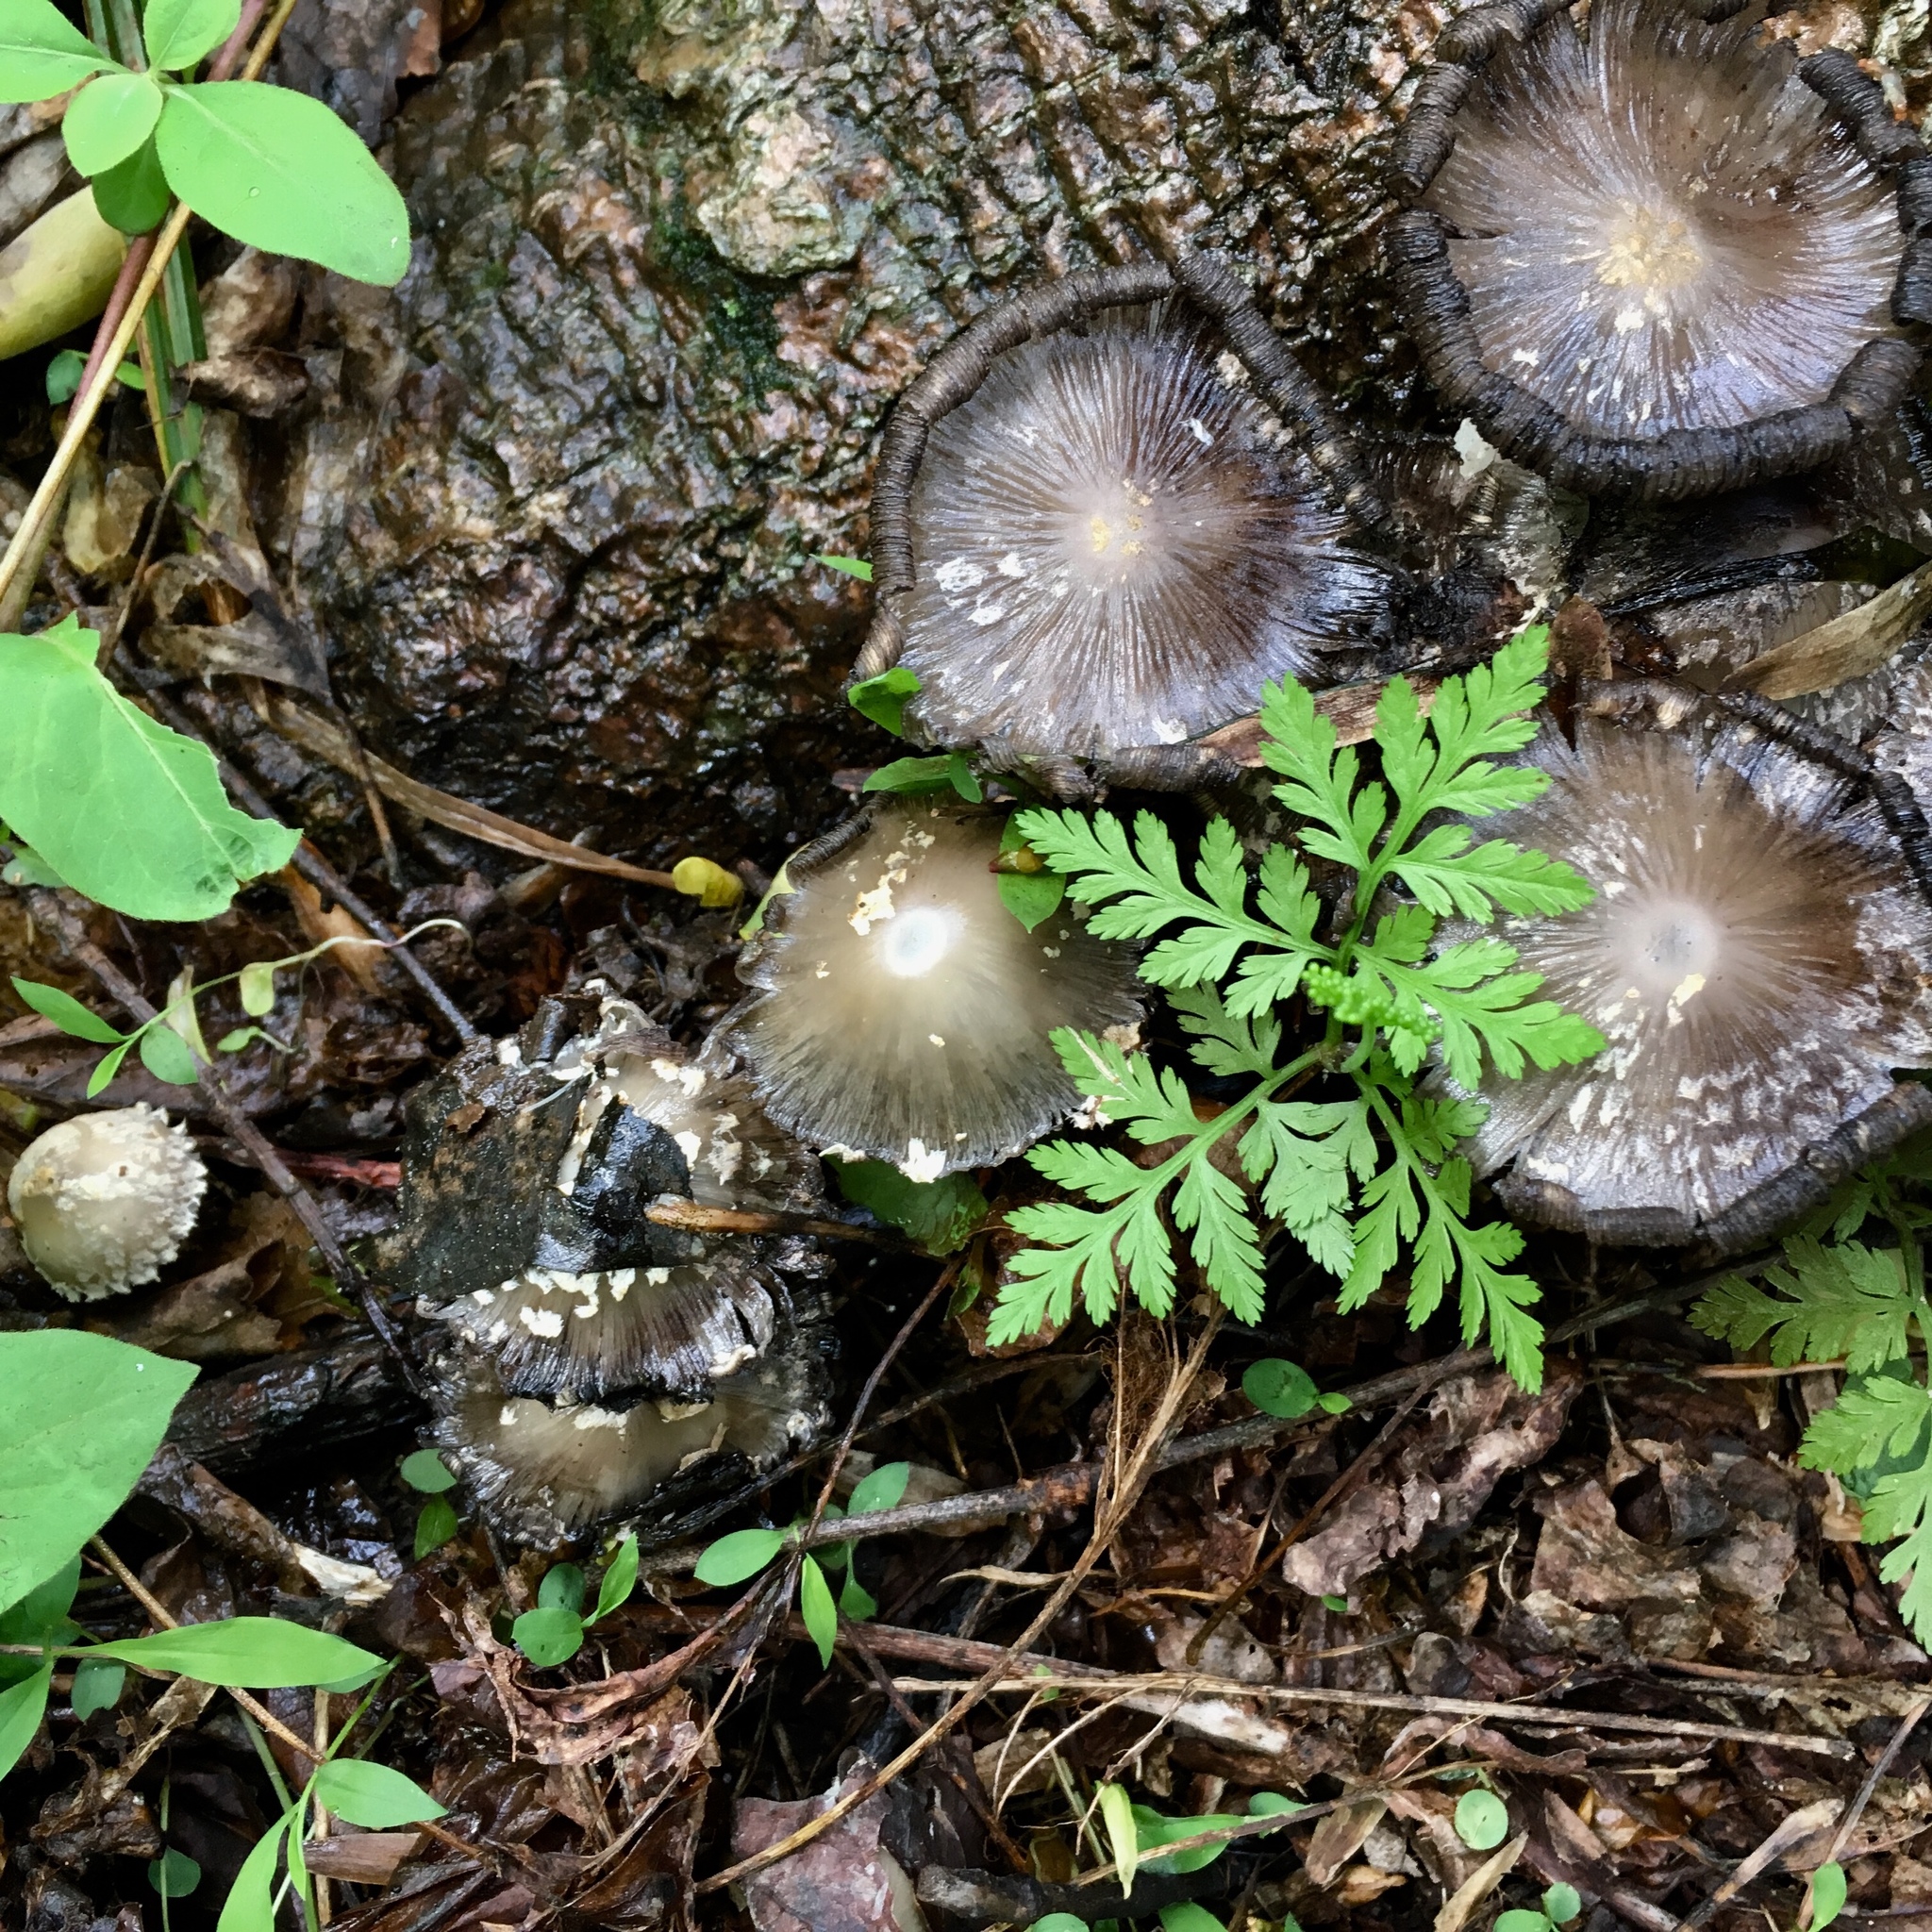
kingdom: Fungi
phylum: Basidiomycota
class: Agaricomycetes
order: Agaricales
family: Psathyrellaceae
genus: Coprinopsis
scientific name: Coprinopsis variegata
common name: Scaly ink cap
